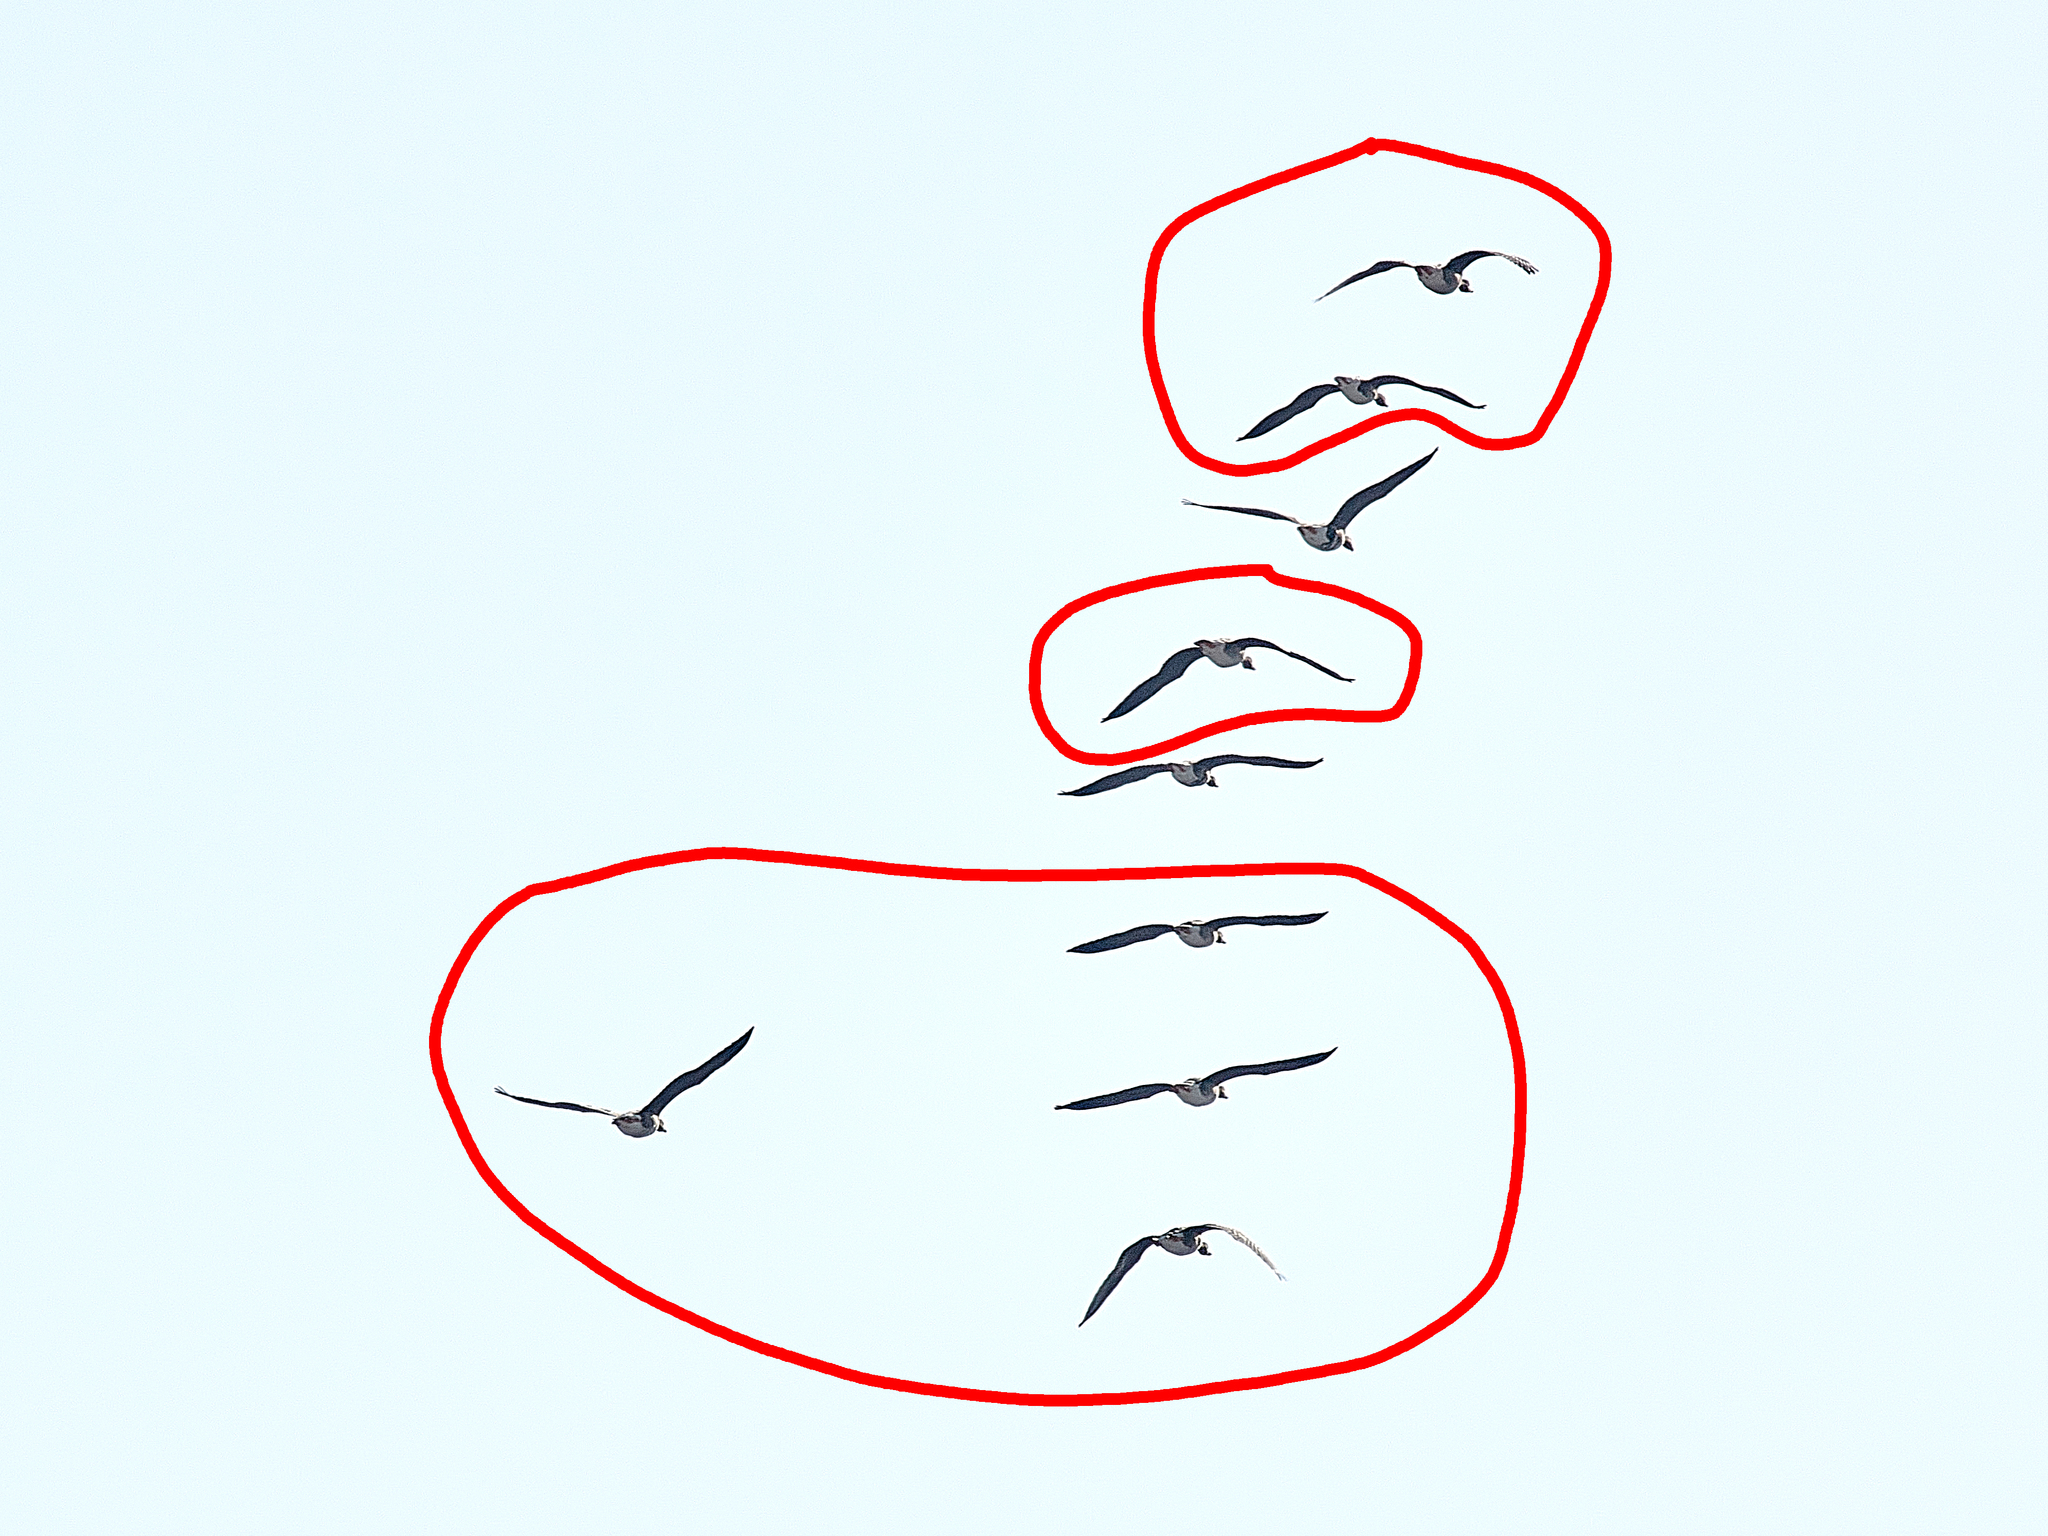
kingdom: Animalia
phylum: Chordata
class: Aves
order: Anseriformes
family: Anatidae
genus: Anser
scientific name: Anser fabalis
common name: Bean goose
